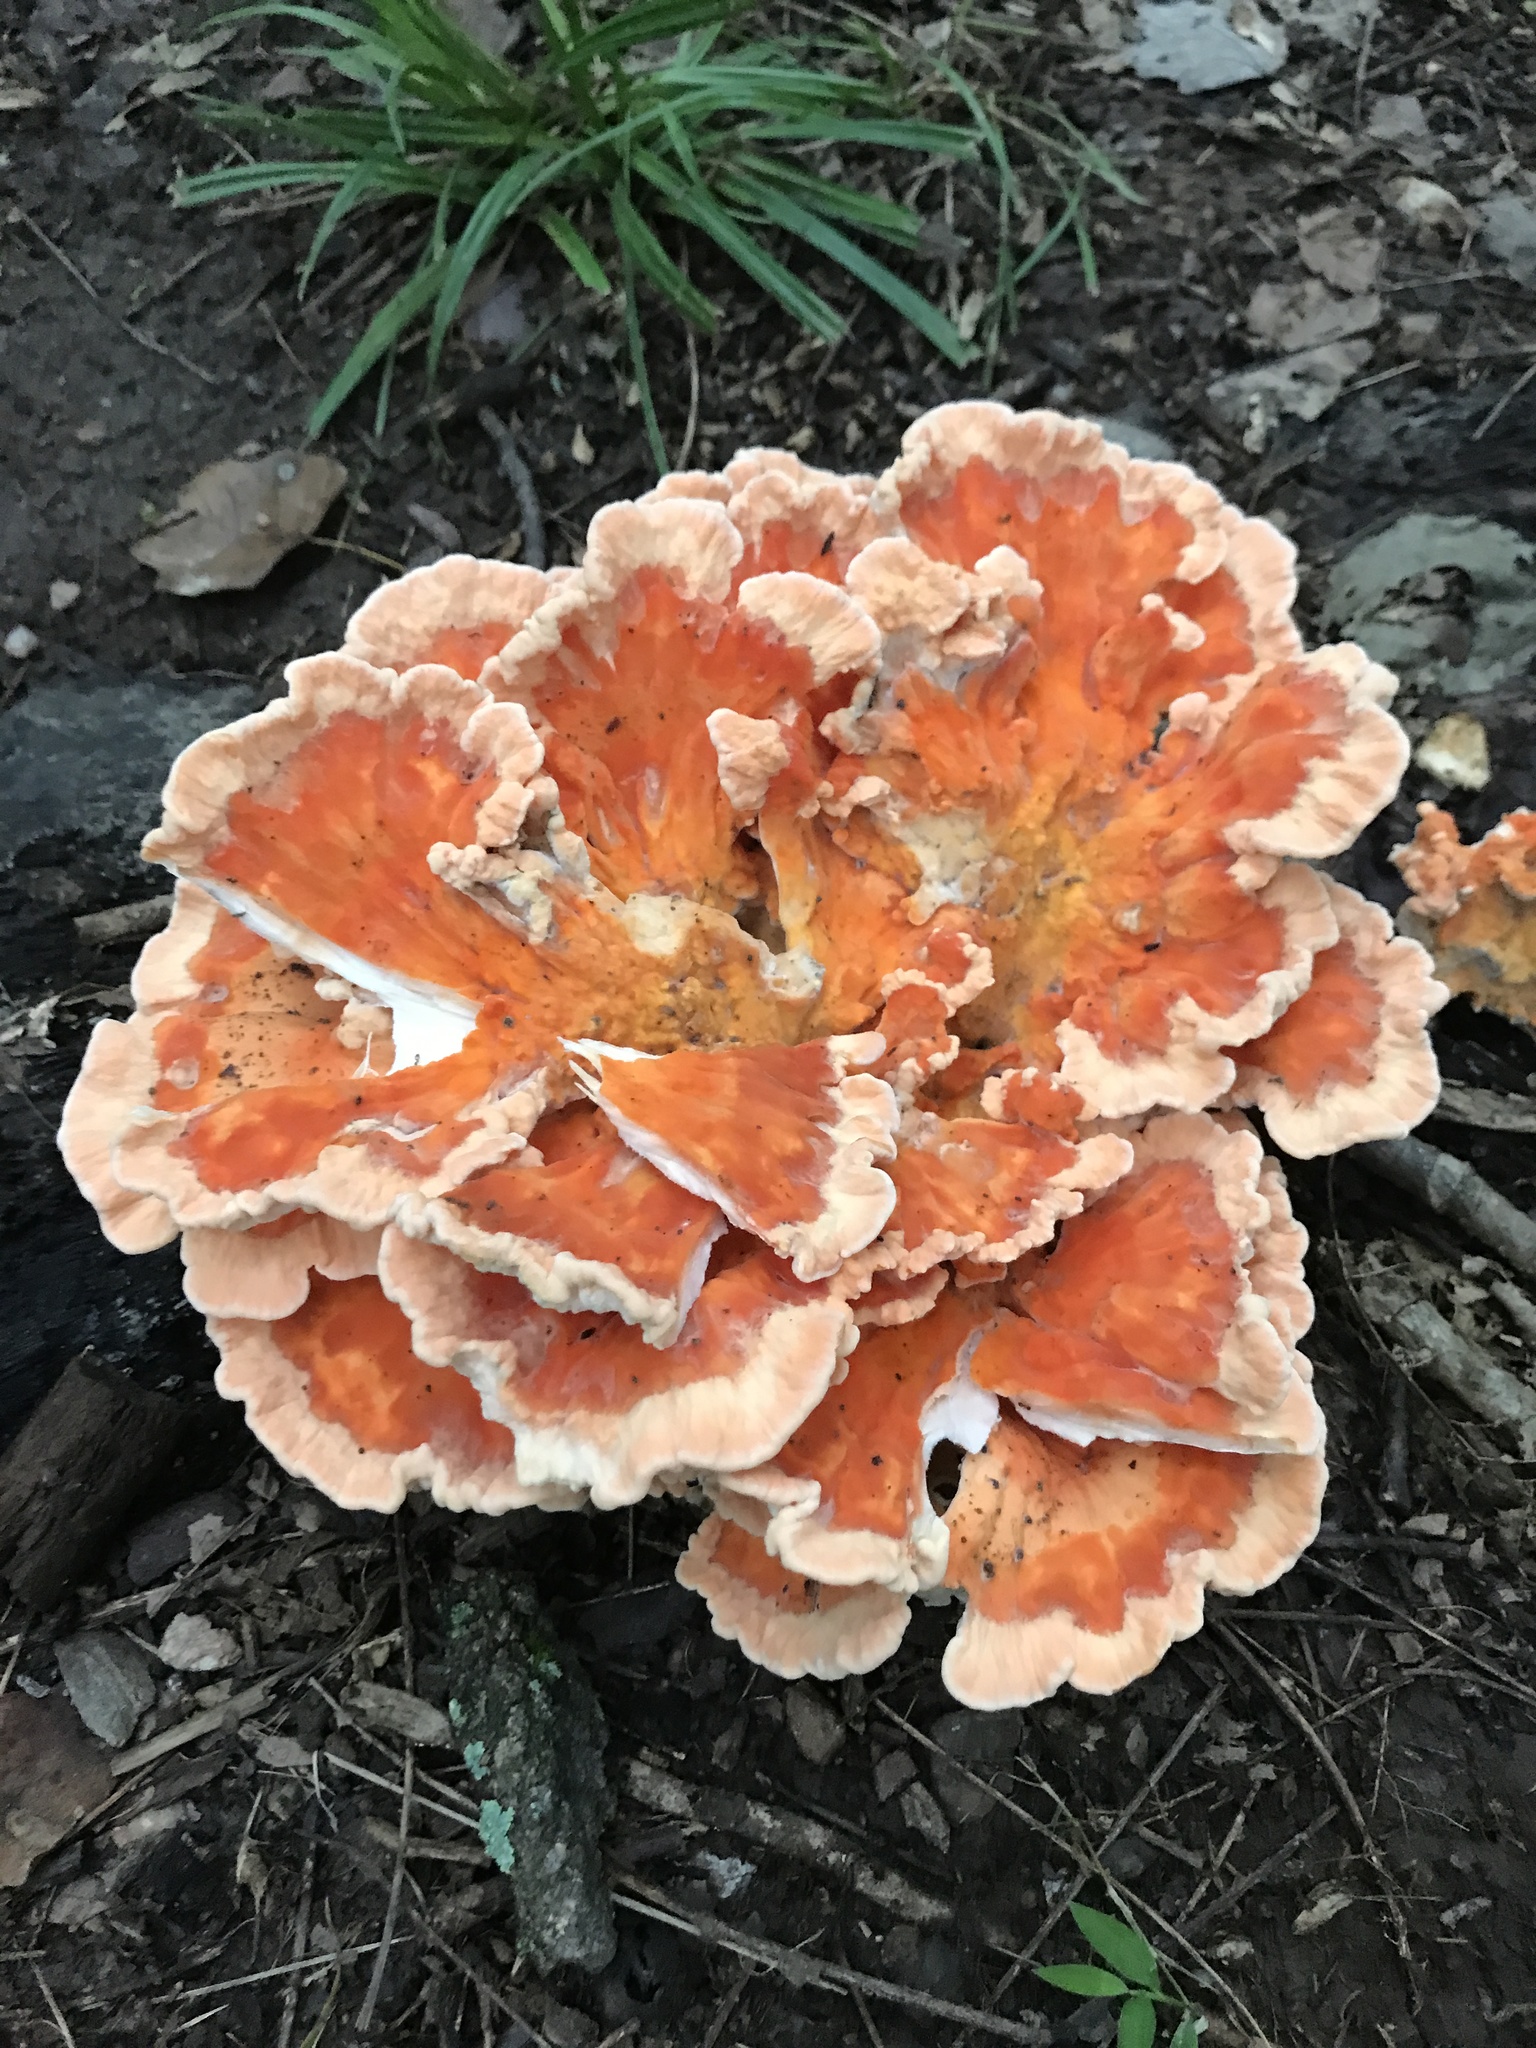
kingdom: Fungi
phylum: Basidiomycota
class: Agaricomycetes
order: Polyporales
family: Laetiporaceae
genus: Laetiporus
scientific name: Laetiporus sulphureus
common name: Chicken of the woods
